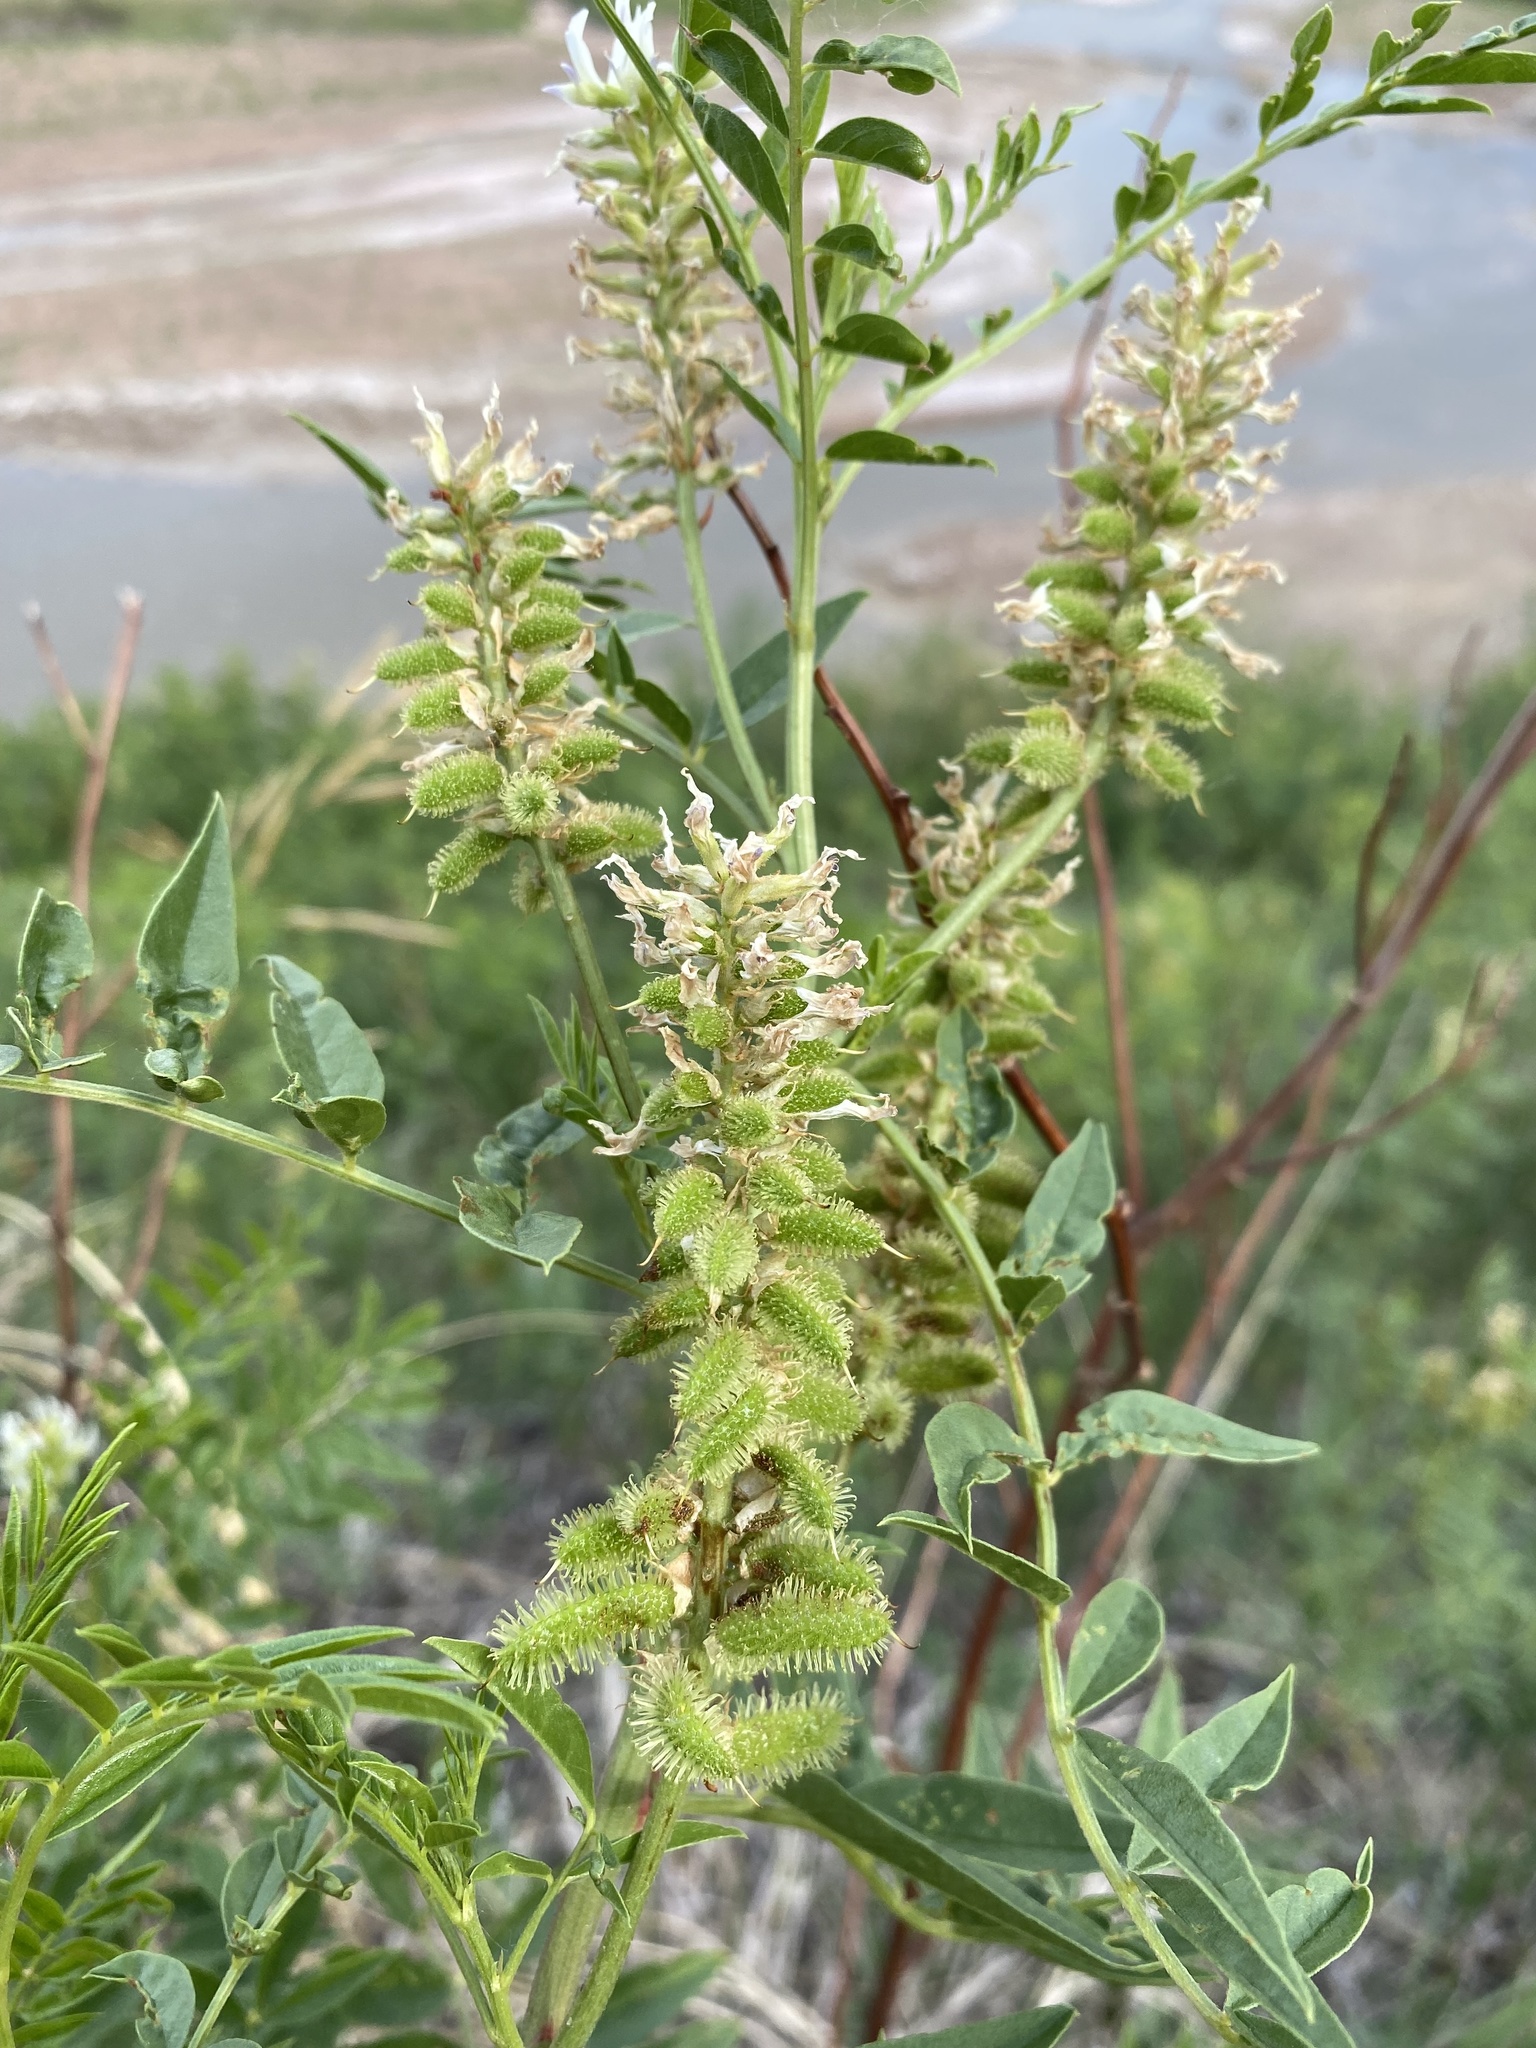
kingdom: Plantae
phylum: Tracheophyta
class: Magnoliopsida
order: Fabales
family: Fabaceae
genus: Glycyrrhiza
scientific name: Glycyrrhiza lepidota
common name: American liquorice
